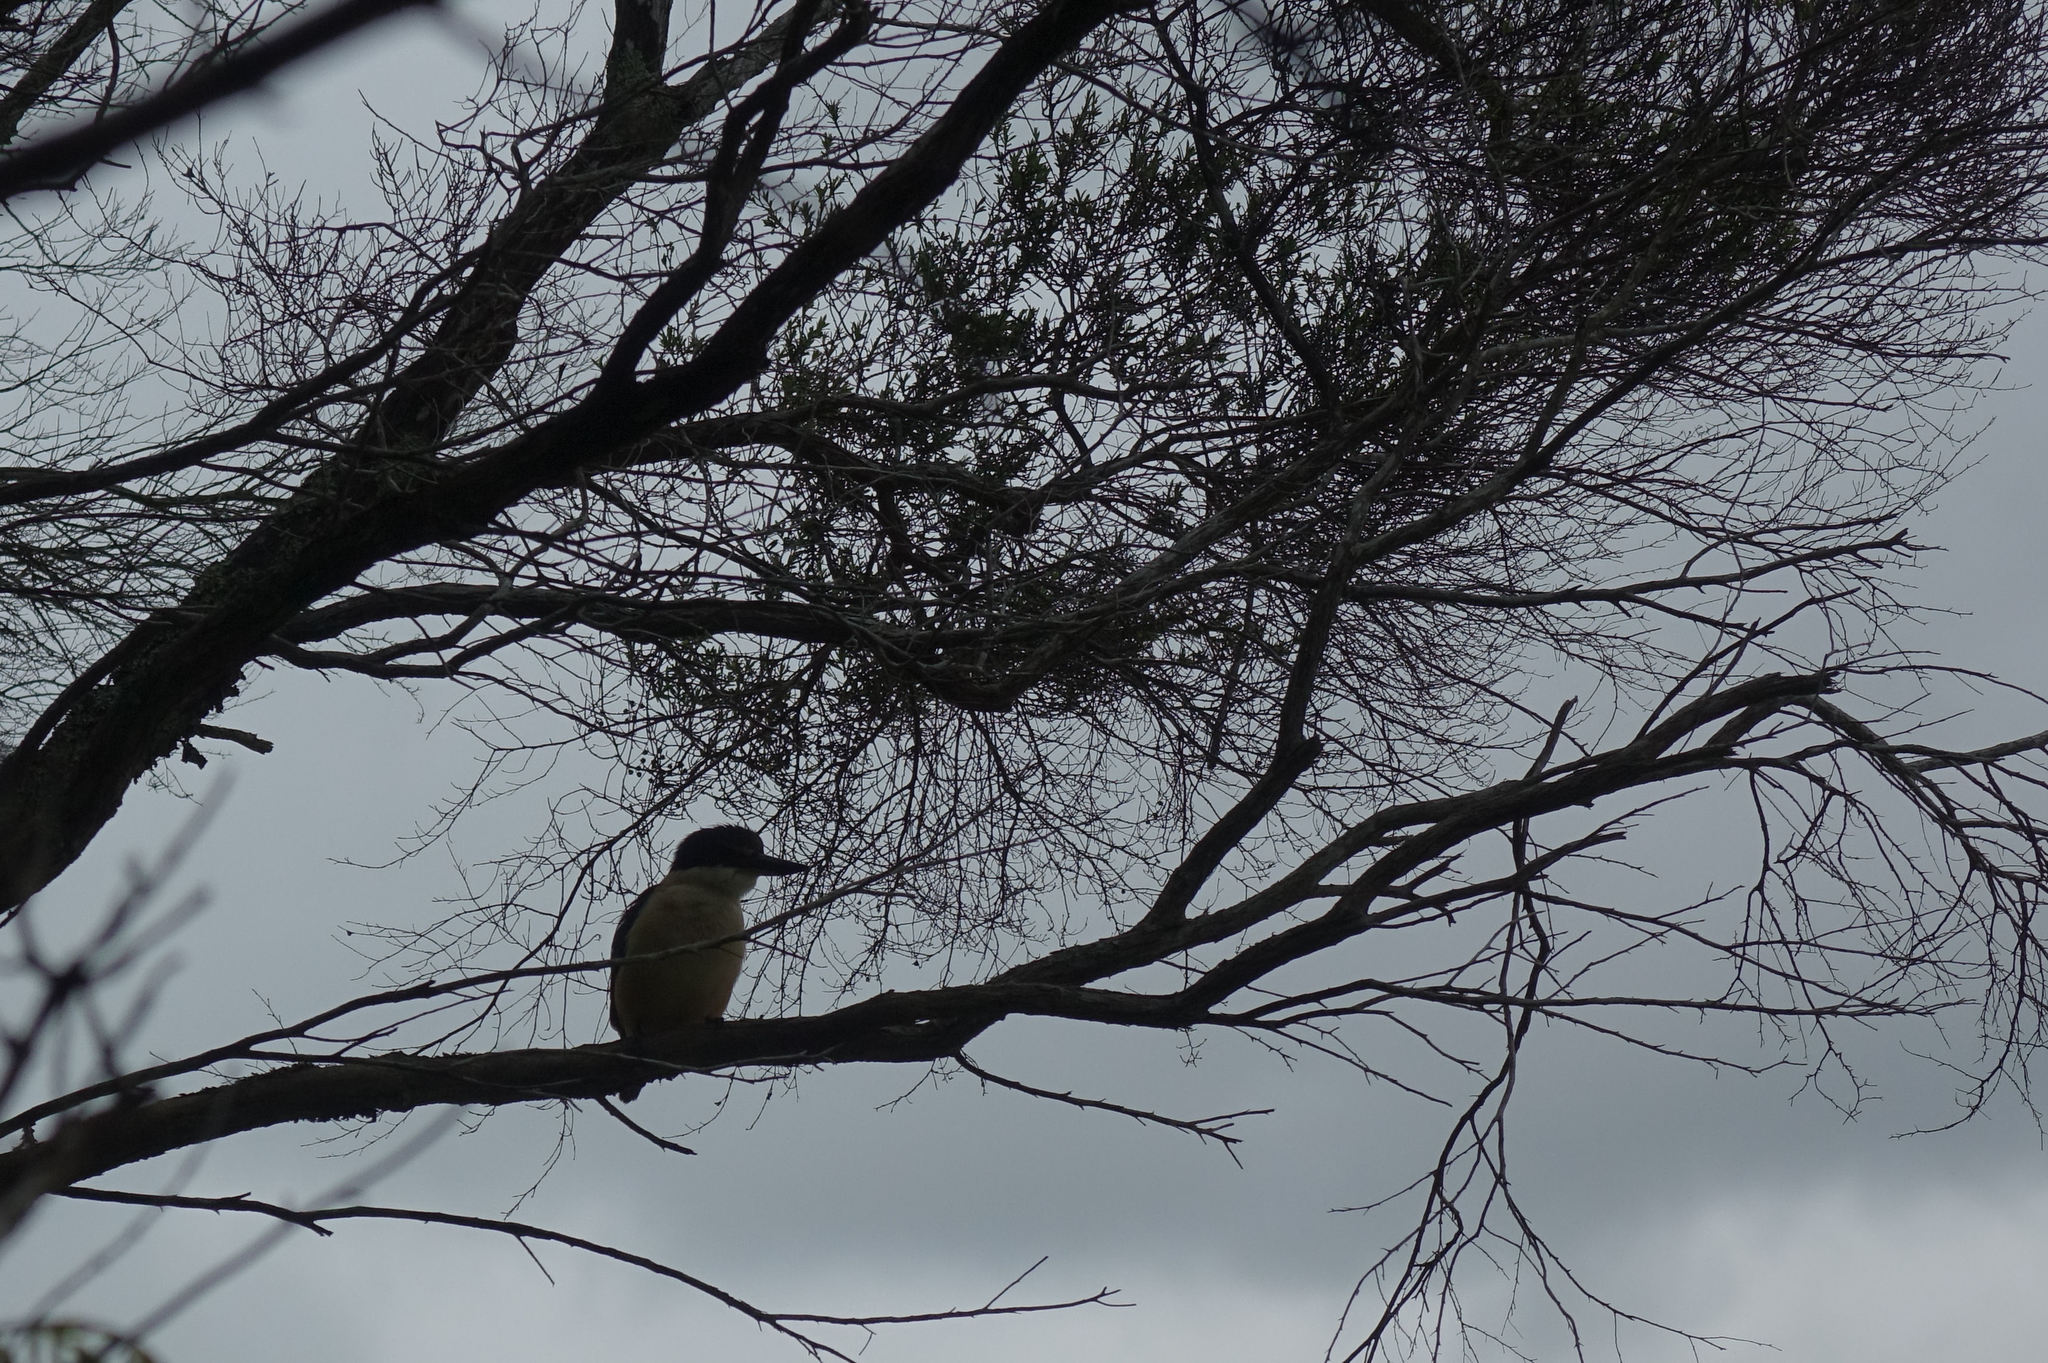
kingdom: Animalia
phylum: Chordata
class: Aves
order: Coraciiformes
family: Alcedinidae
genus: Todiramphus
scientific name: Todiramphus sanctus
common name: Sacred kingfisher
